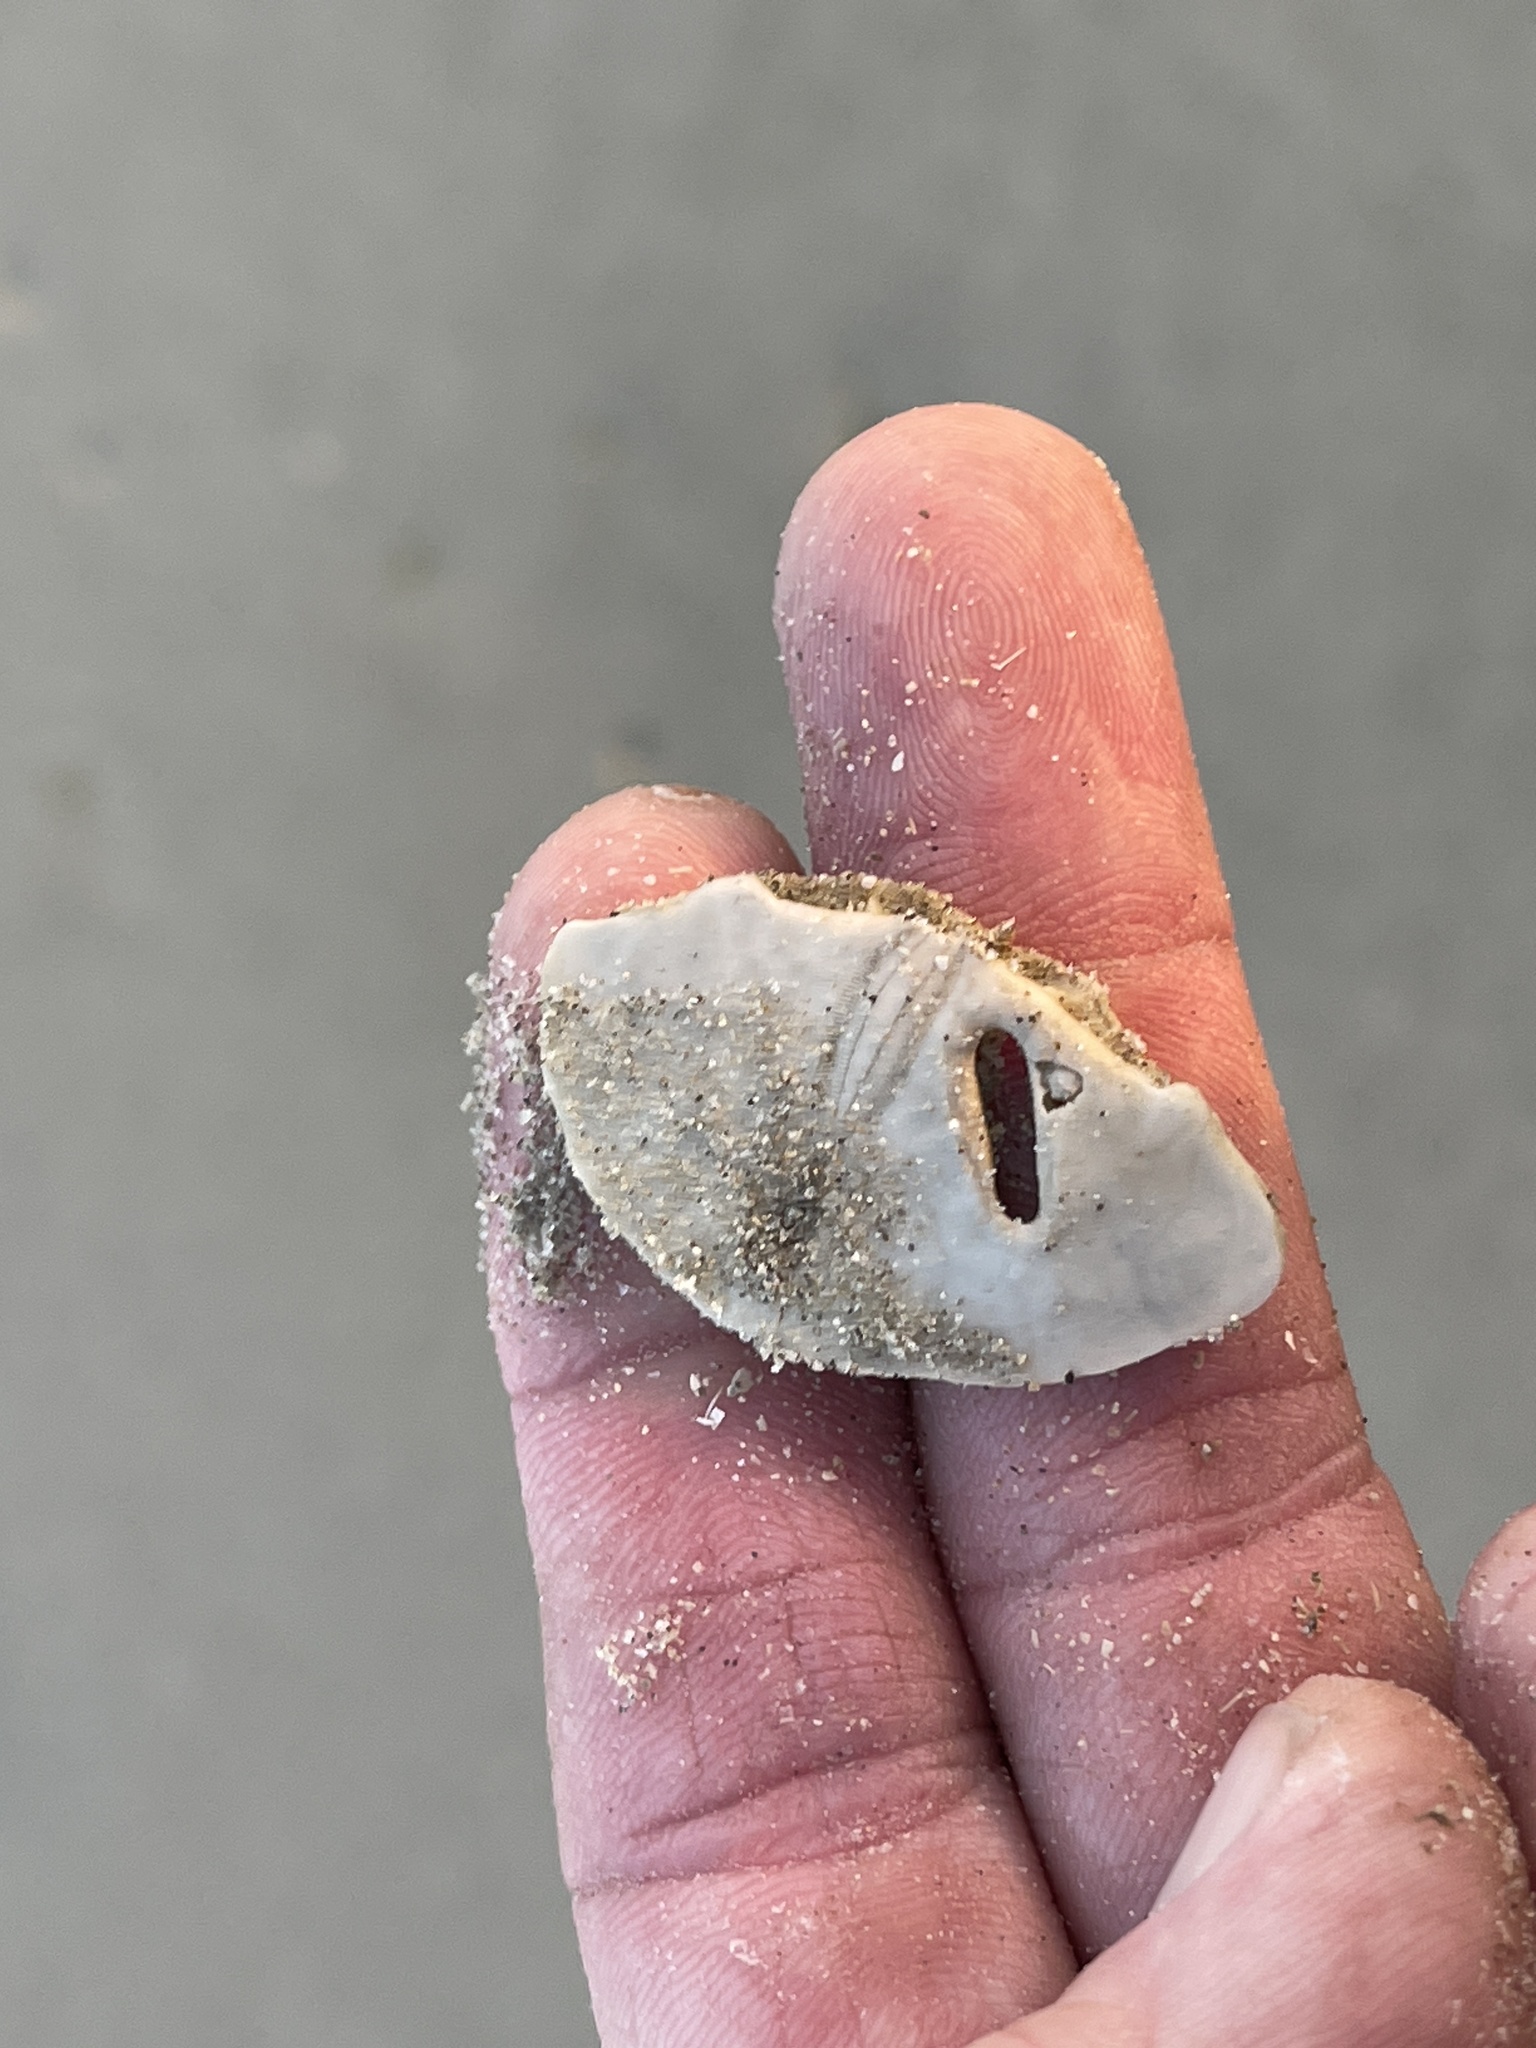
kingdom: Animalia
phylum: Echinodermata
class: Echinoidea
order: Echinolampadacea
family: Mellitidae
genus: Mellita
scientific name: Mellita quinquiesperforata
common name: Sand dollar
